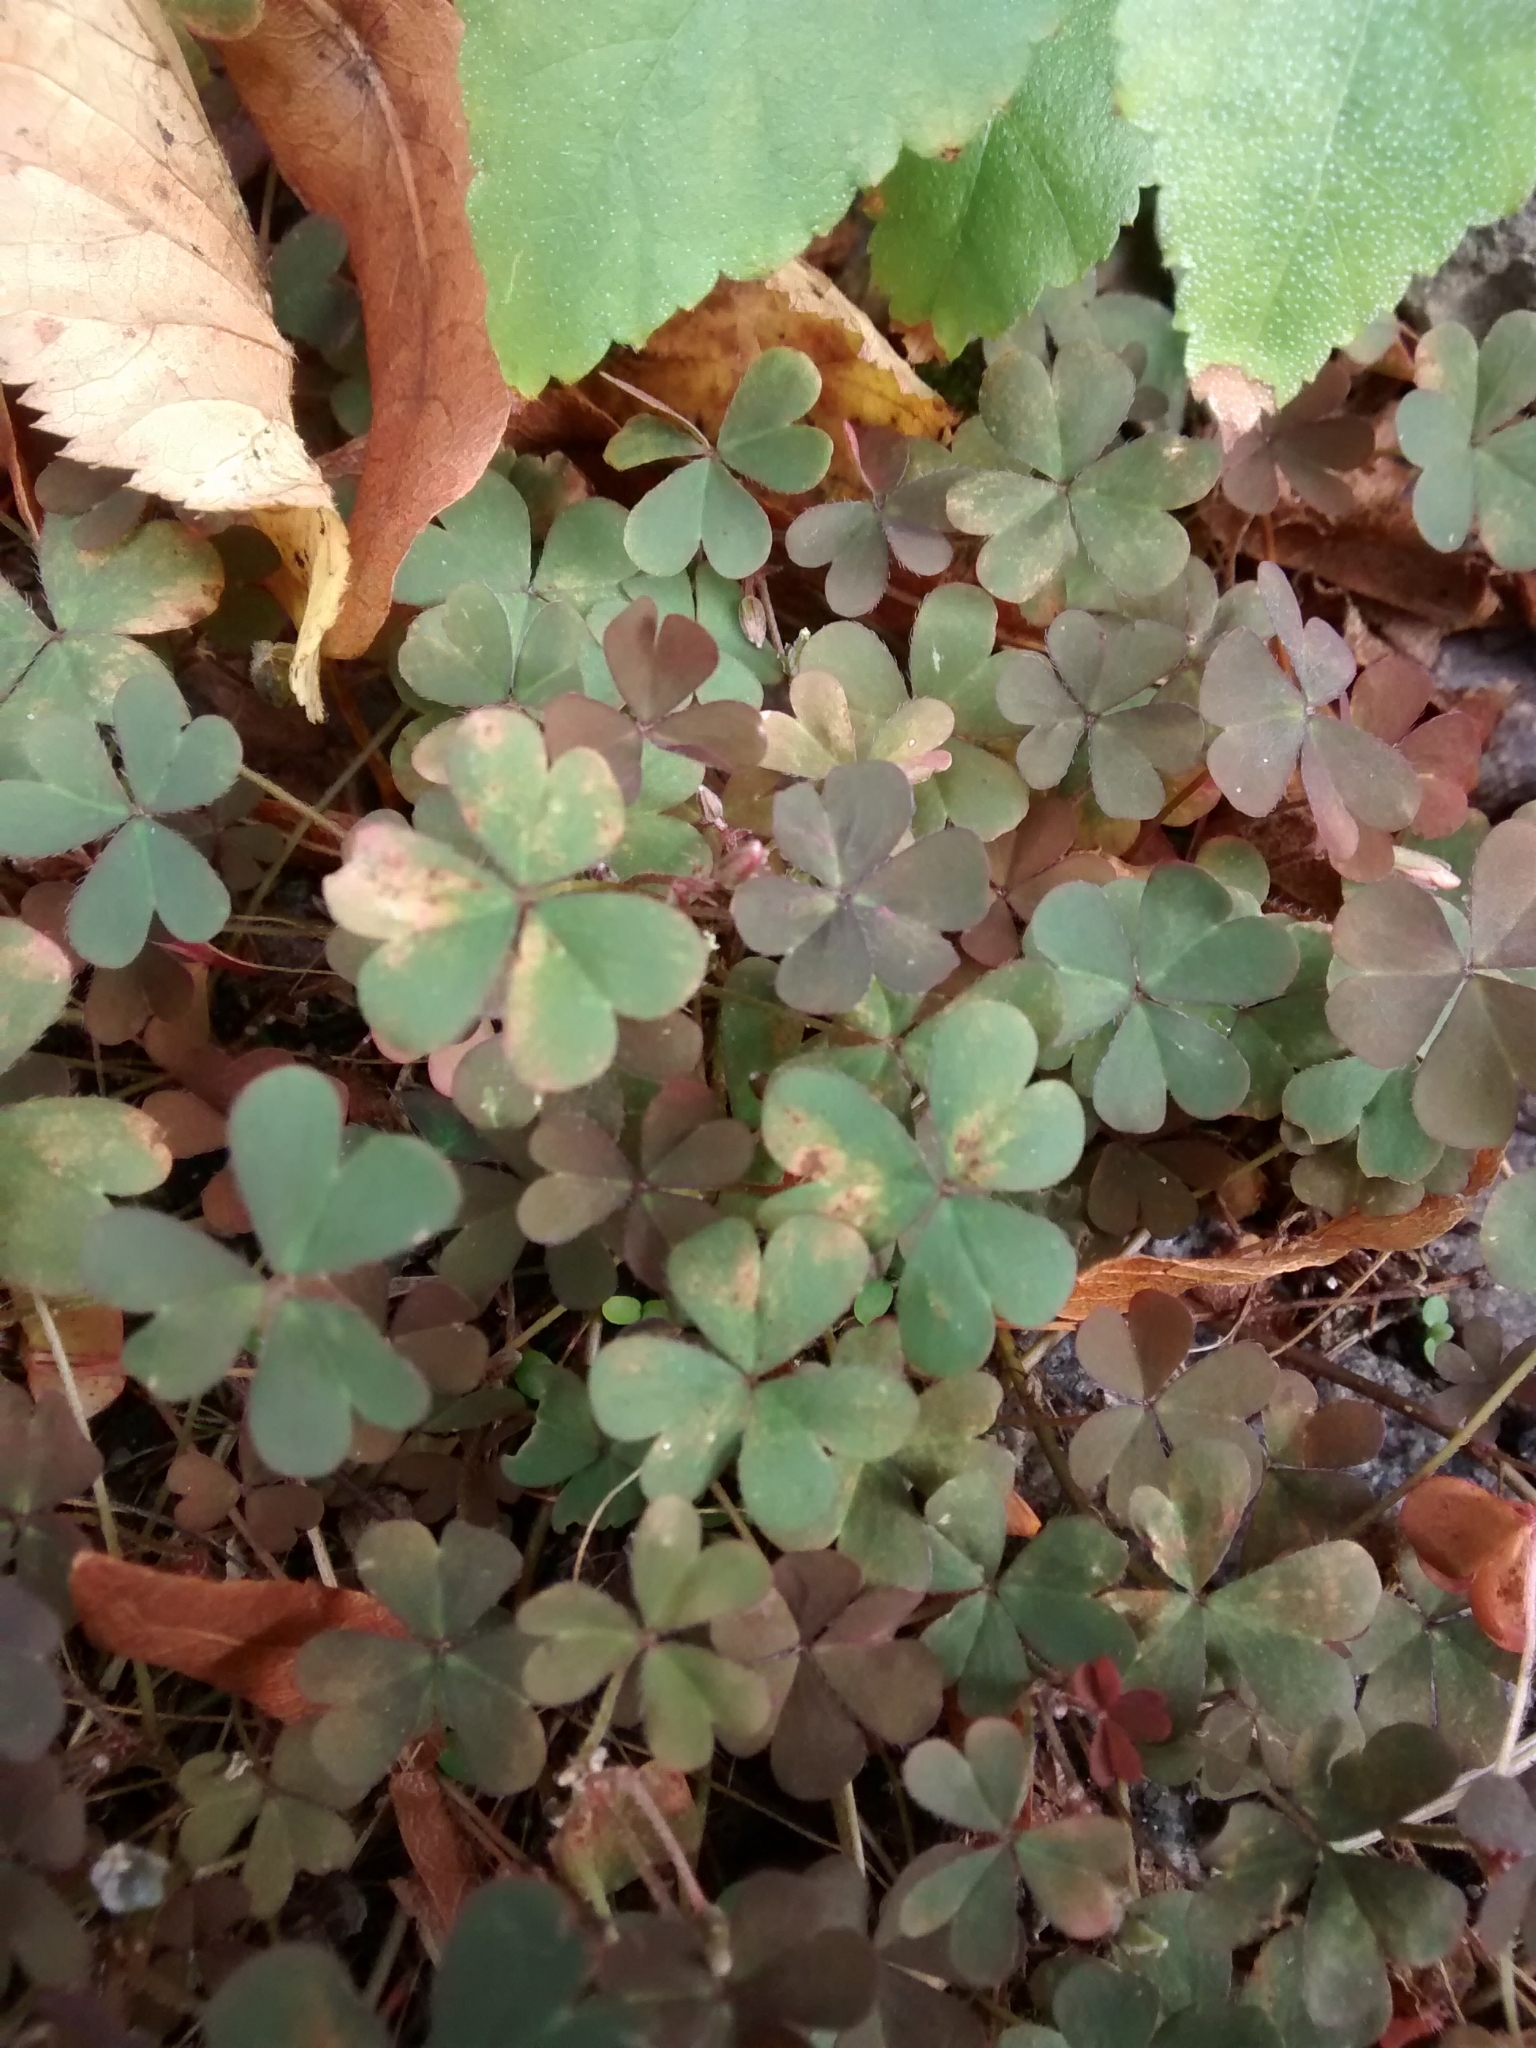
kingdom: Plantae
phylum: Tracheophyta
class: Magnoliopsida
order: Oxalidales
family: Oxalidaceae
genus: Oxalis
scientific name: Oxalis corniculata
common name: Procumbent yellow-sorrel
